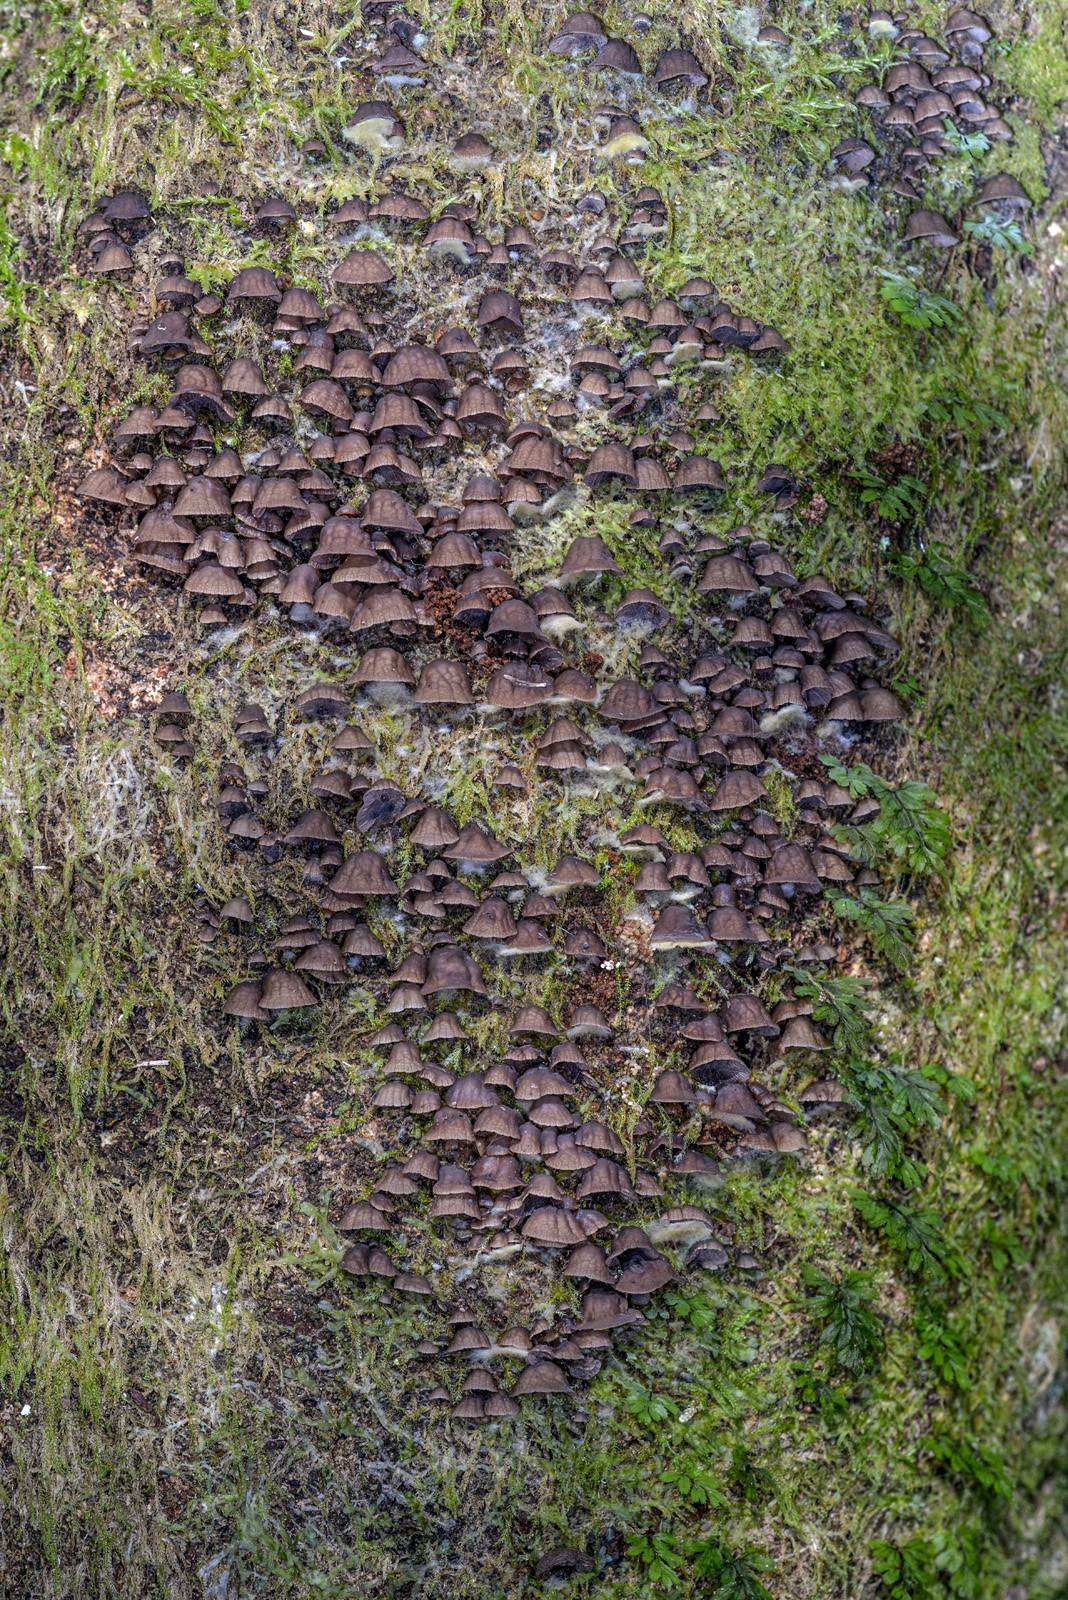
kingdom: Fungi
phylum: Basidiomycota
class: Agaricomycetes
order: Agaricales
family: Pleurotaceae
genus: Resupinatus
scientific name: Resupinatus merulioides
